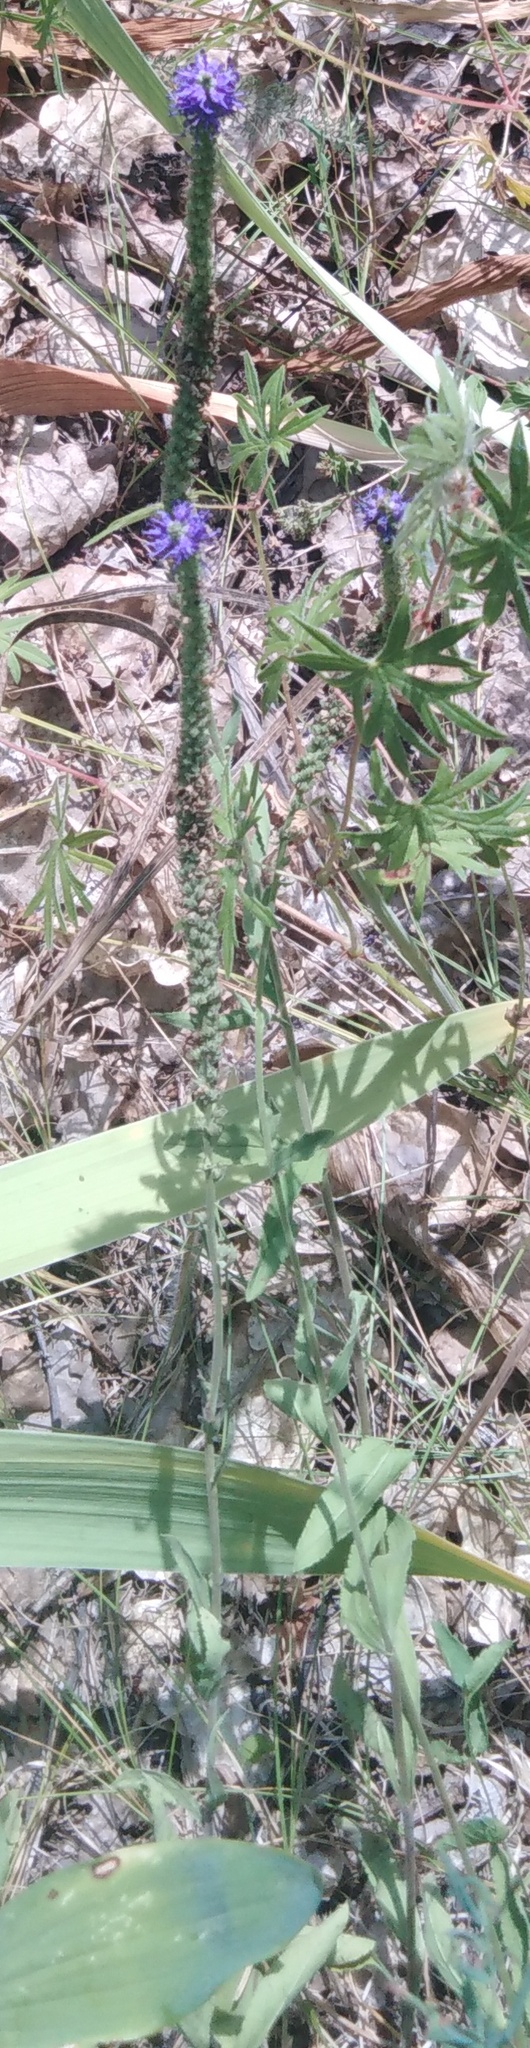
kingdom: Plantae
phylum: Tracheophyta
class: Magnoliopsida
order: Lamiales
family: Plantaginaceae
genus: Veronica
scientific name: Veronica spicata
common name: Spiked speedwell
